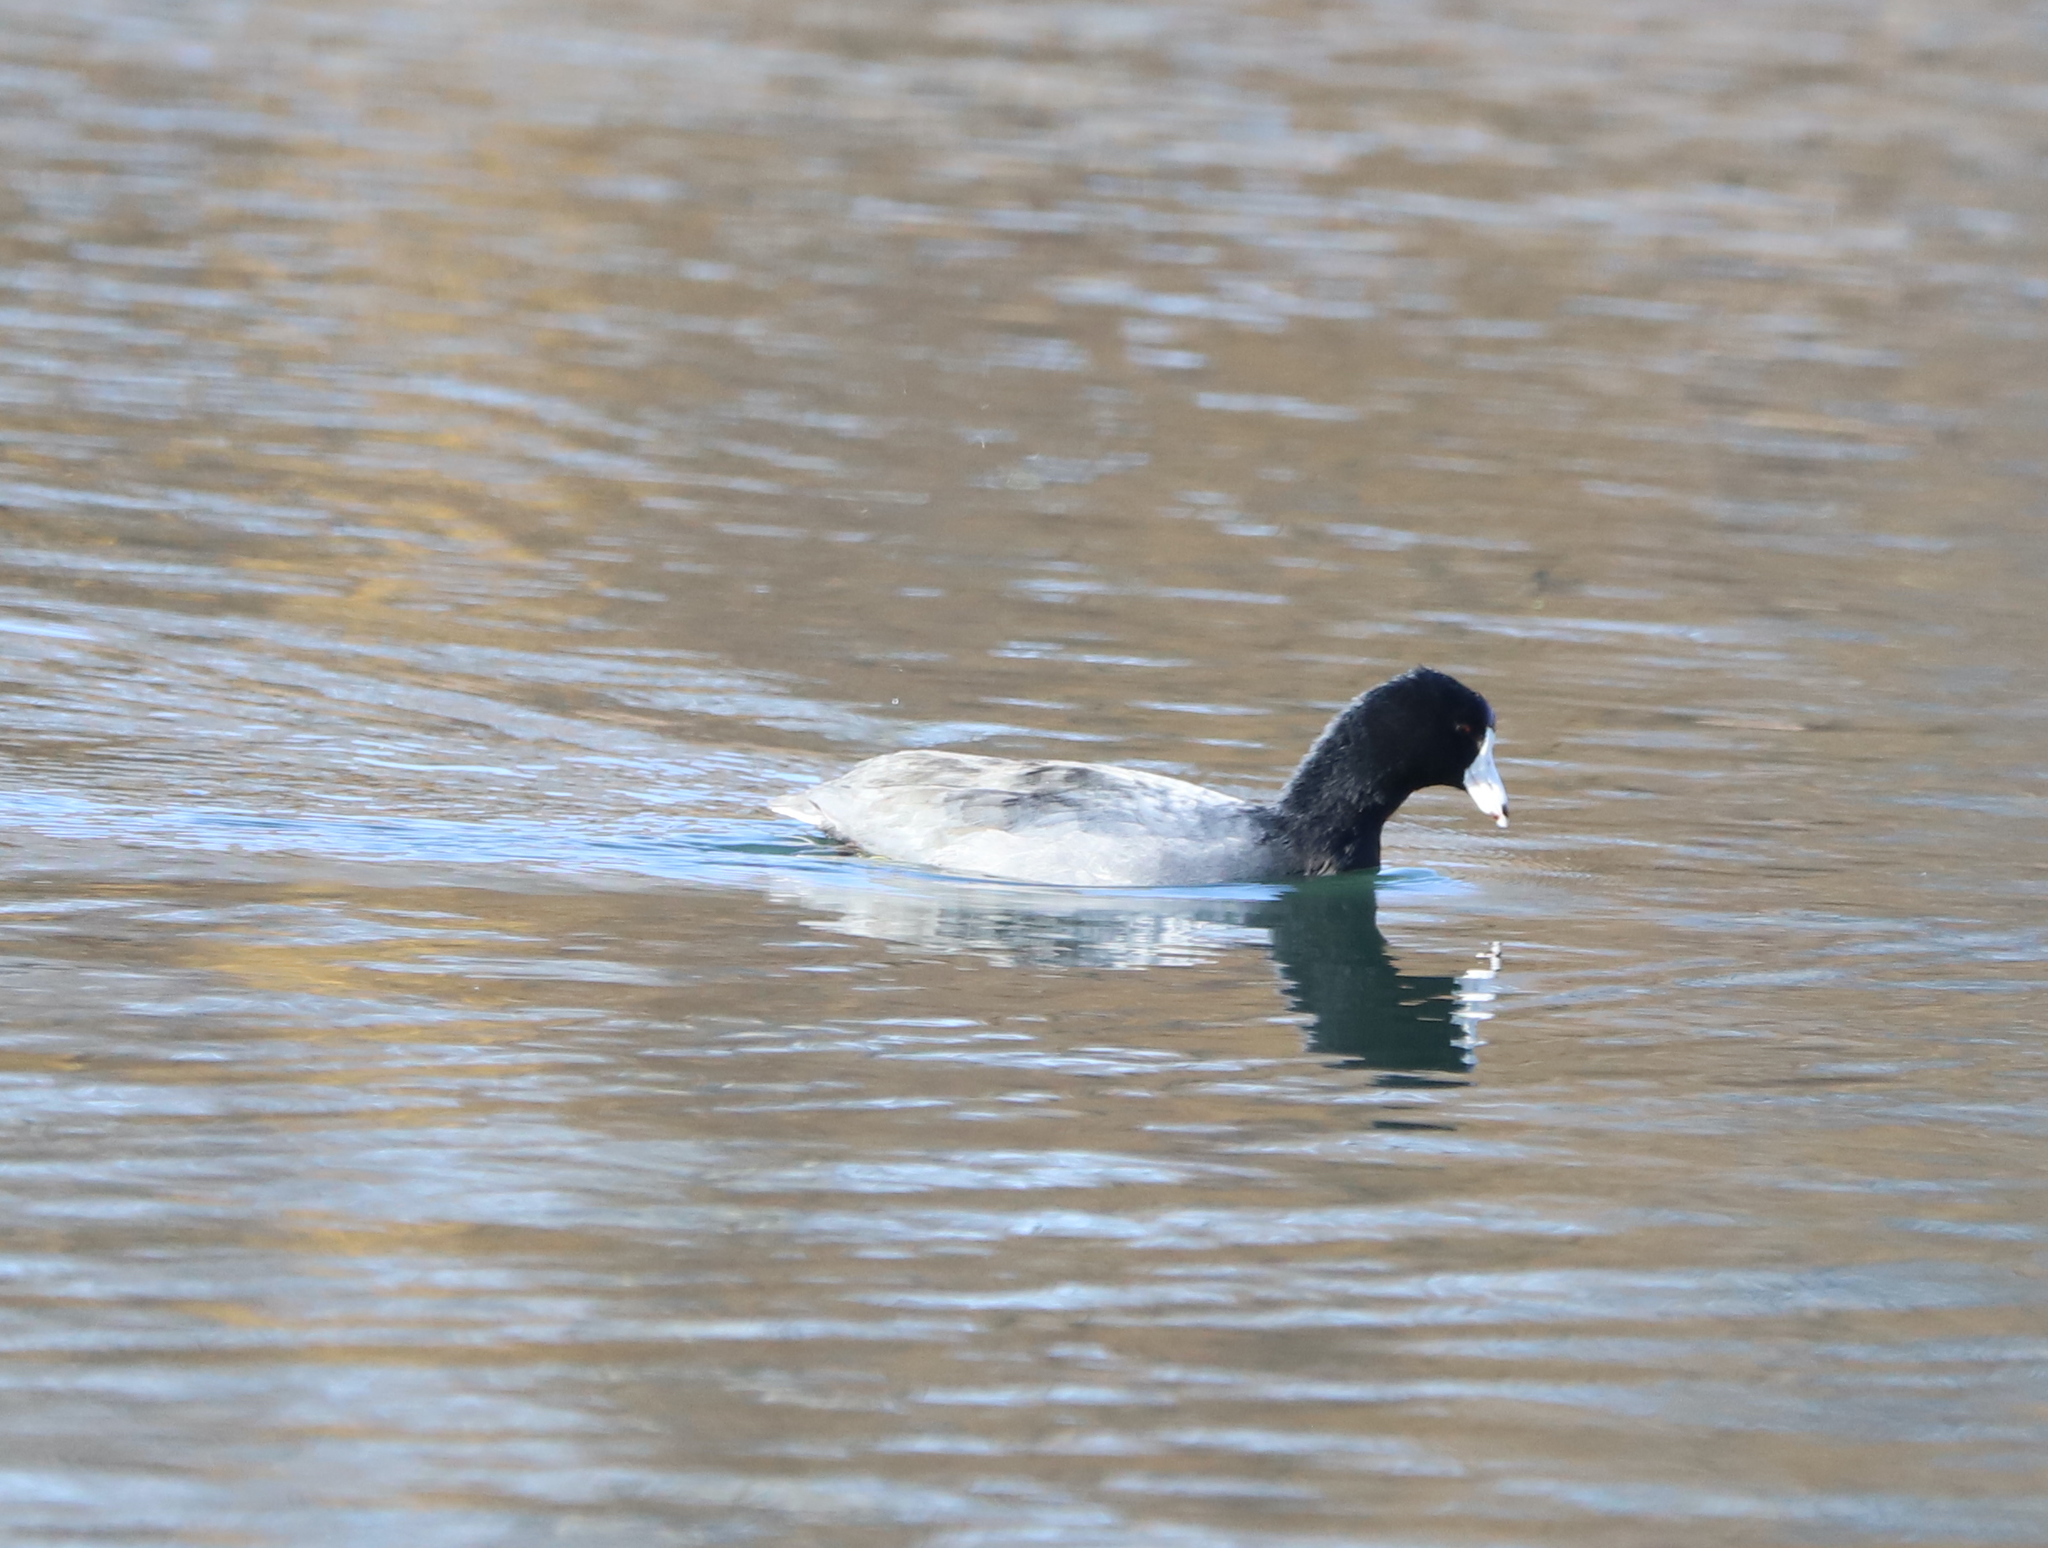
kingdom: Animalia
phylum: Chordata
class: Aves
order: Gruiformes
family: Rallidae
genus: Fulica
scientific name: Fulica americana
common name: American coot
